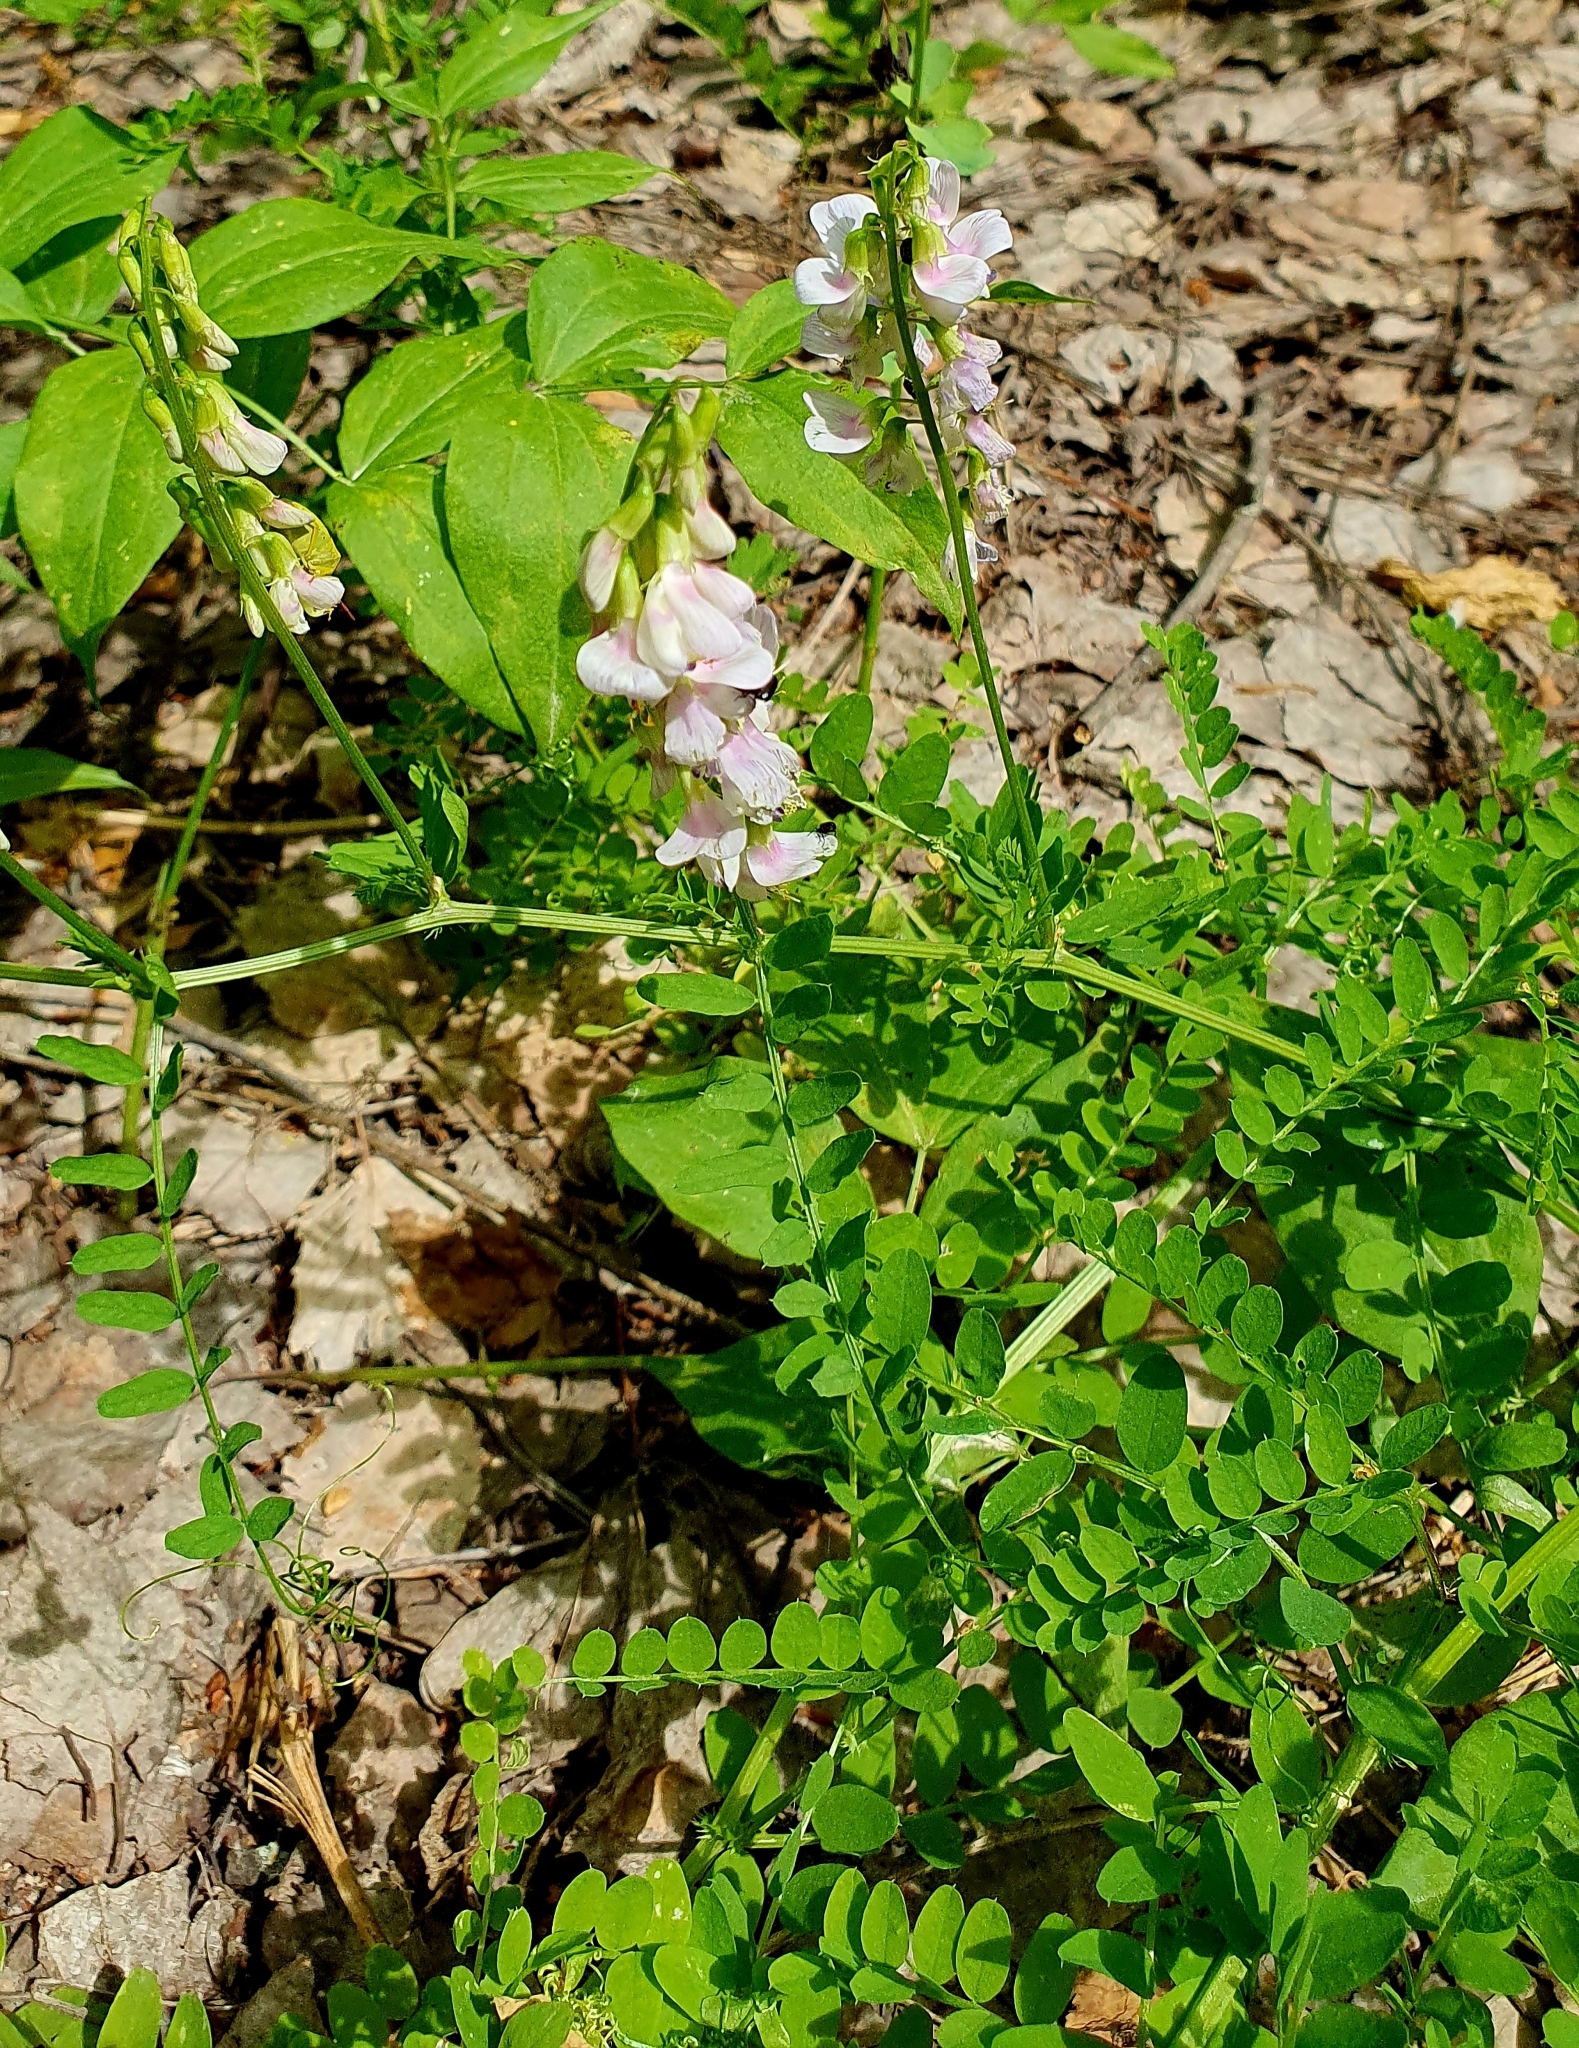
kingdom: Plantae
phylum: Tracheophyta
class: Magnoliopsida
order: Fabales
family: Fabaceae
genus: Vicia
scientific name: Vicia sylvatica
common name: Wood vetch
